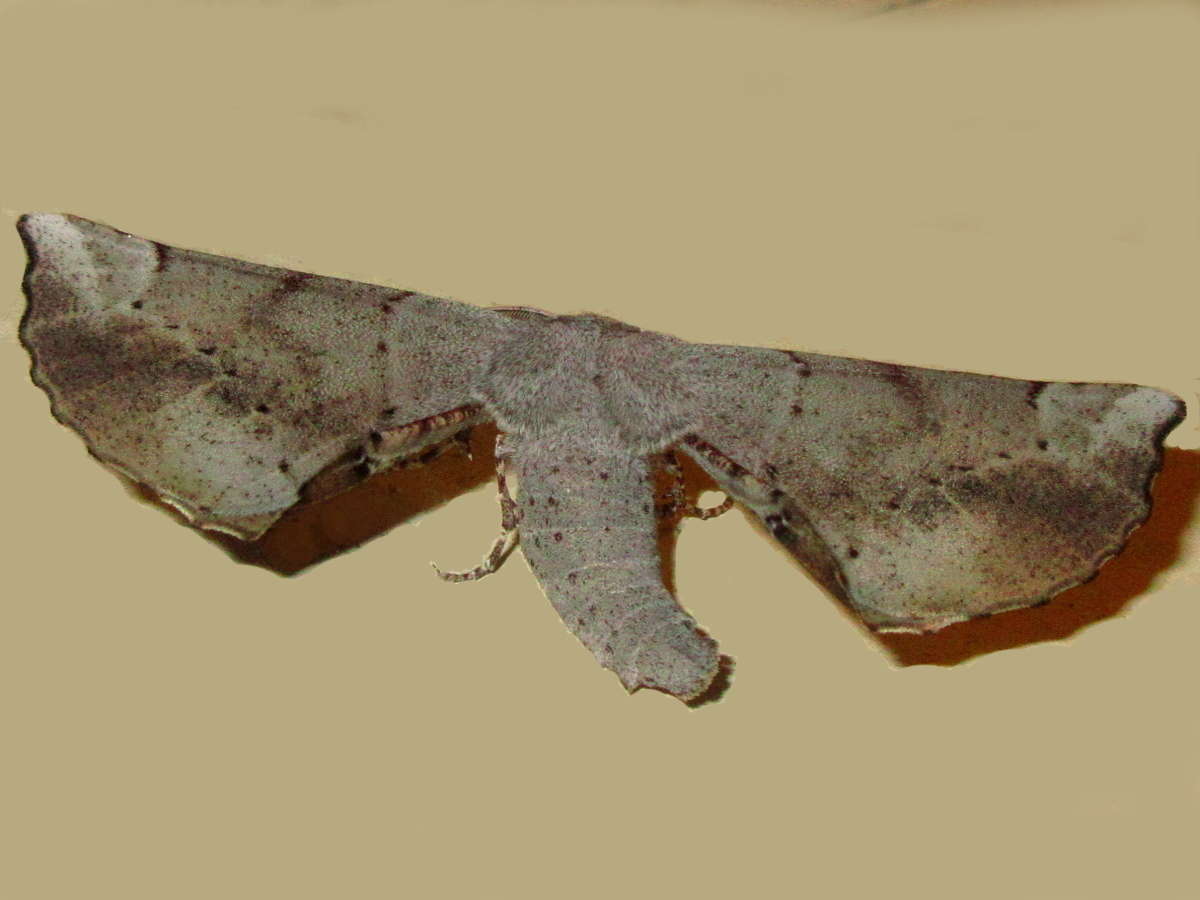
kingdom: Animalia
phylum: Arthropoda
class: Insecta
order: Lepidoptera
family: Geometridae
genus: Circopetes
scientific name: Circopetes obtusata
